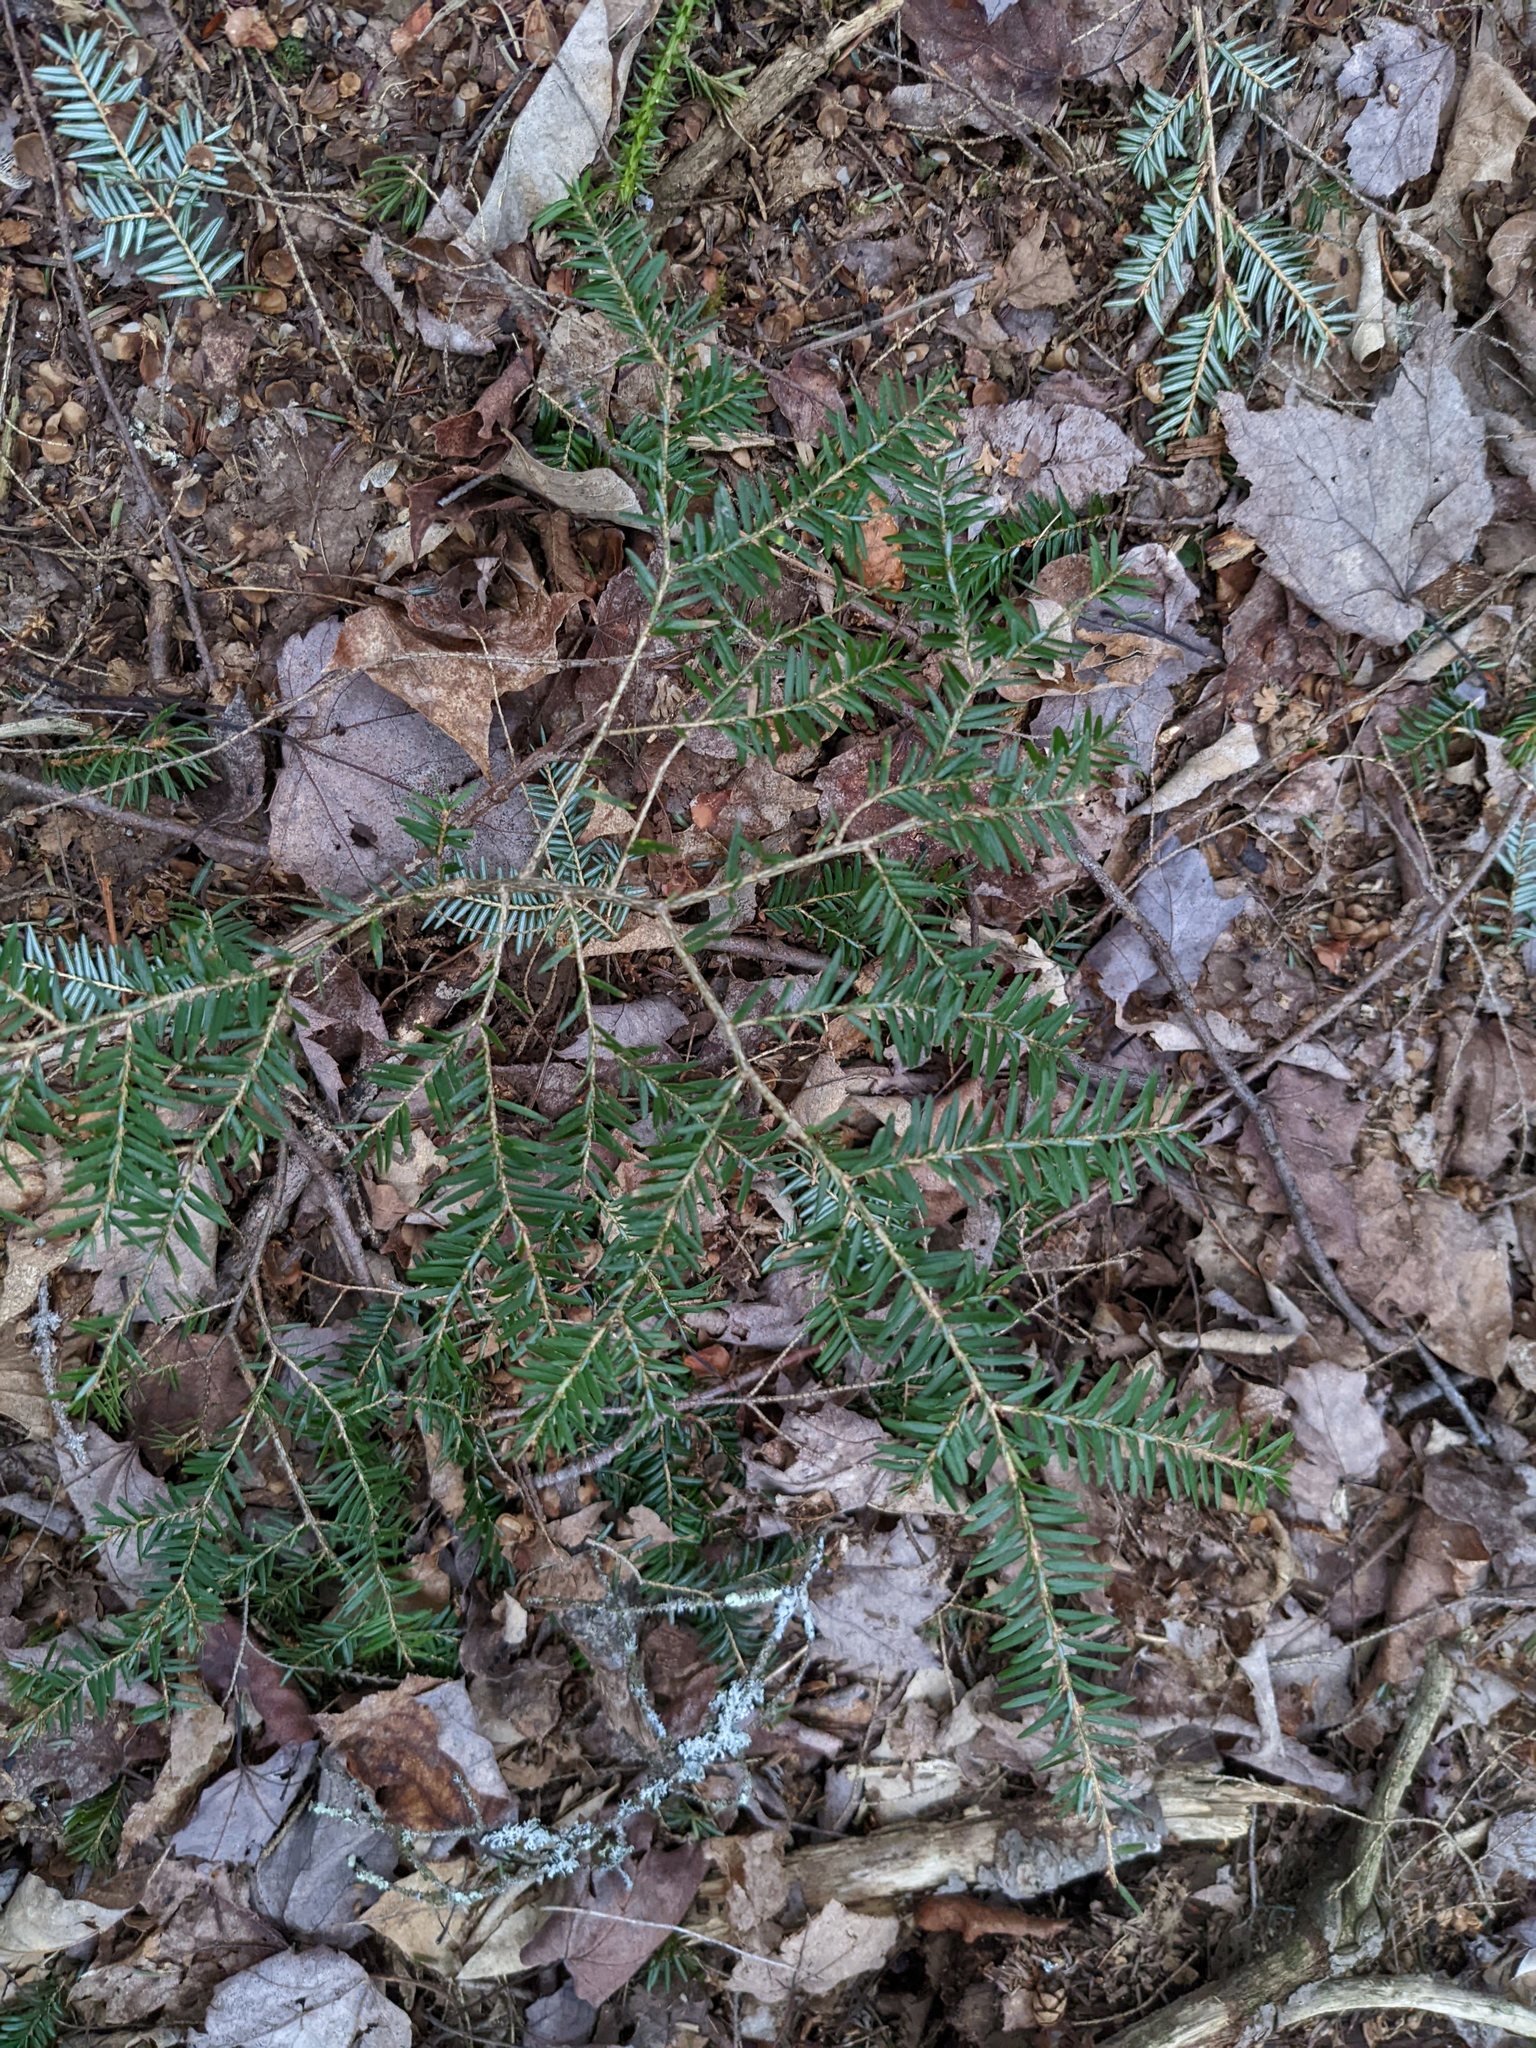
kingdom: Plantae
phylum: Tracheophyta
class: Pinopsida
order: Pinales
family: Pinaceae
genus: Tsuga
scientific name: Tsuga canadensis
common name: Eastern hemlock
